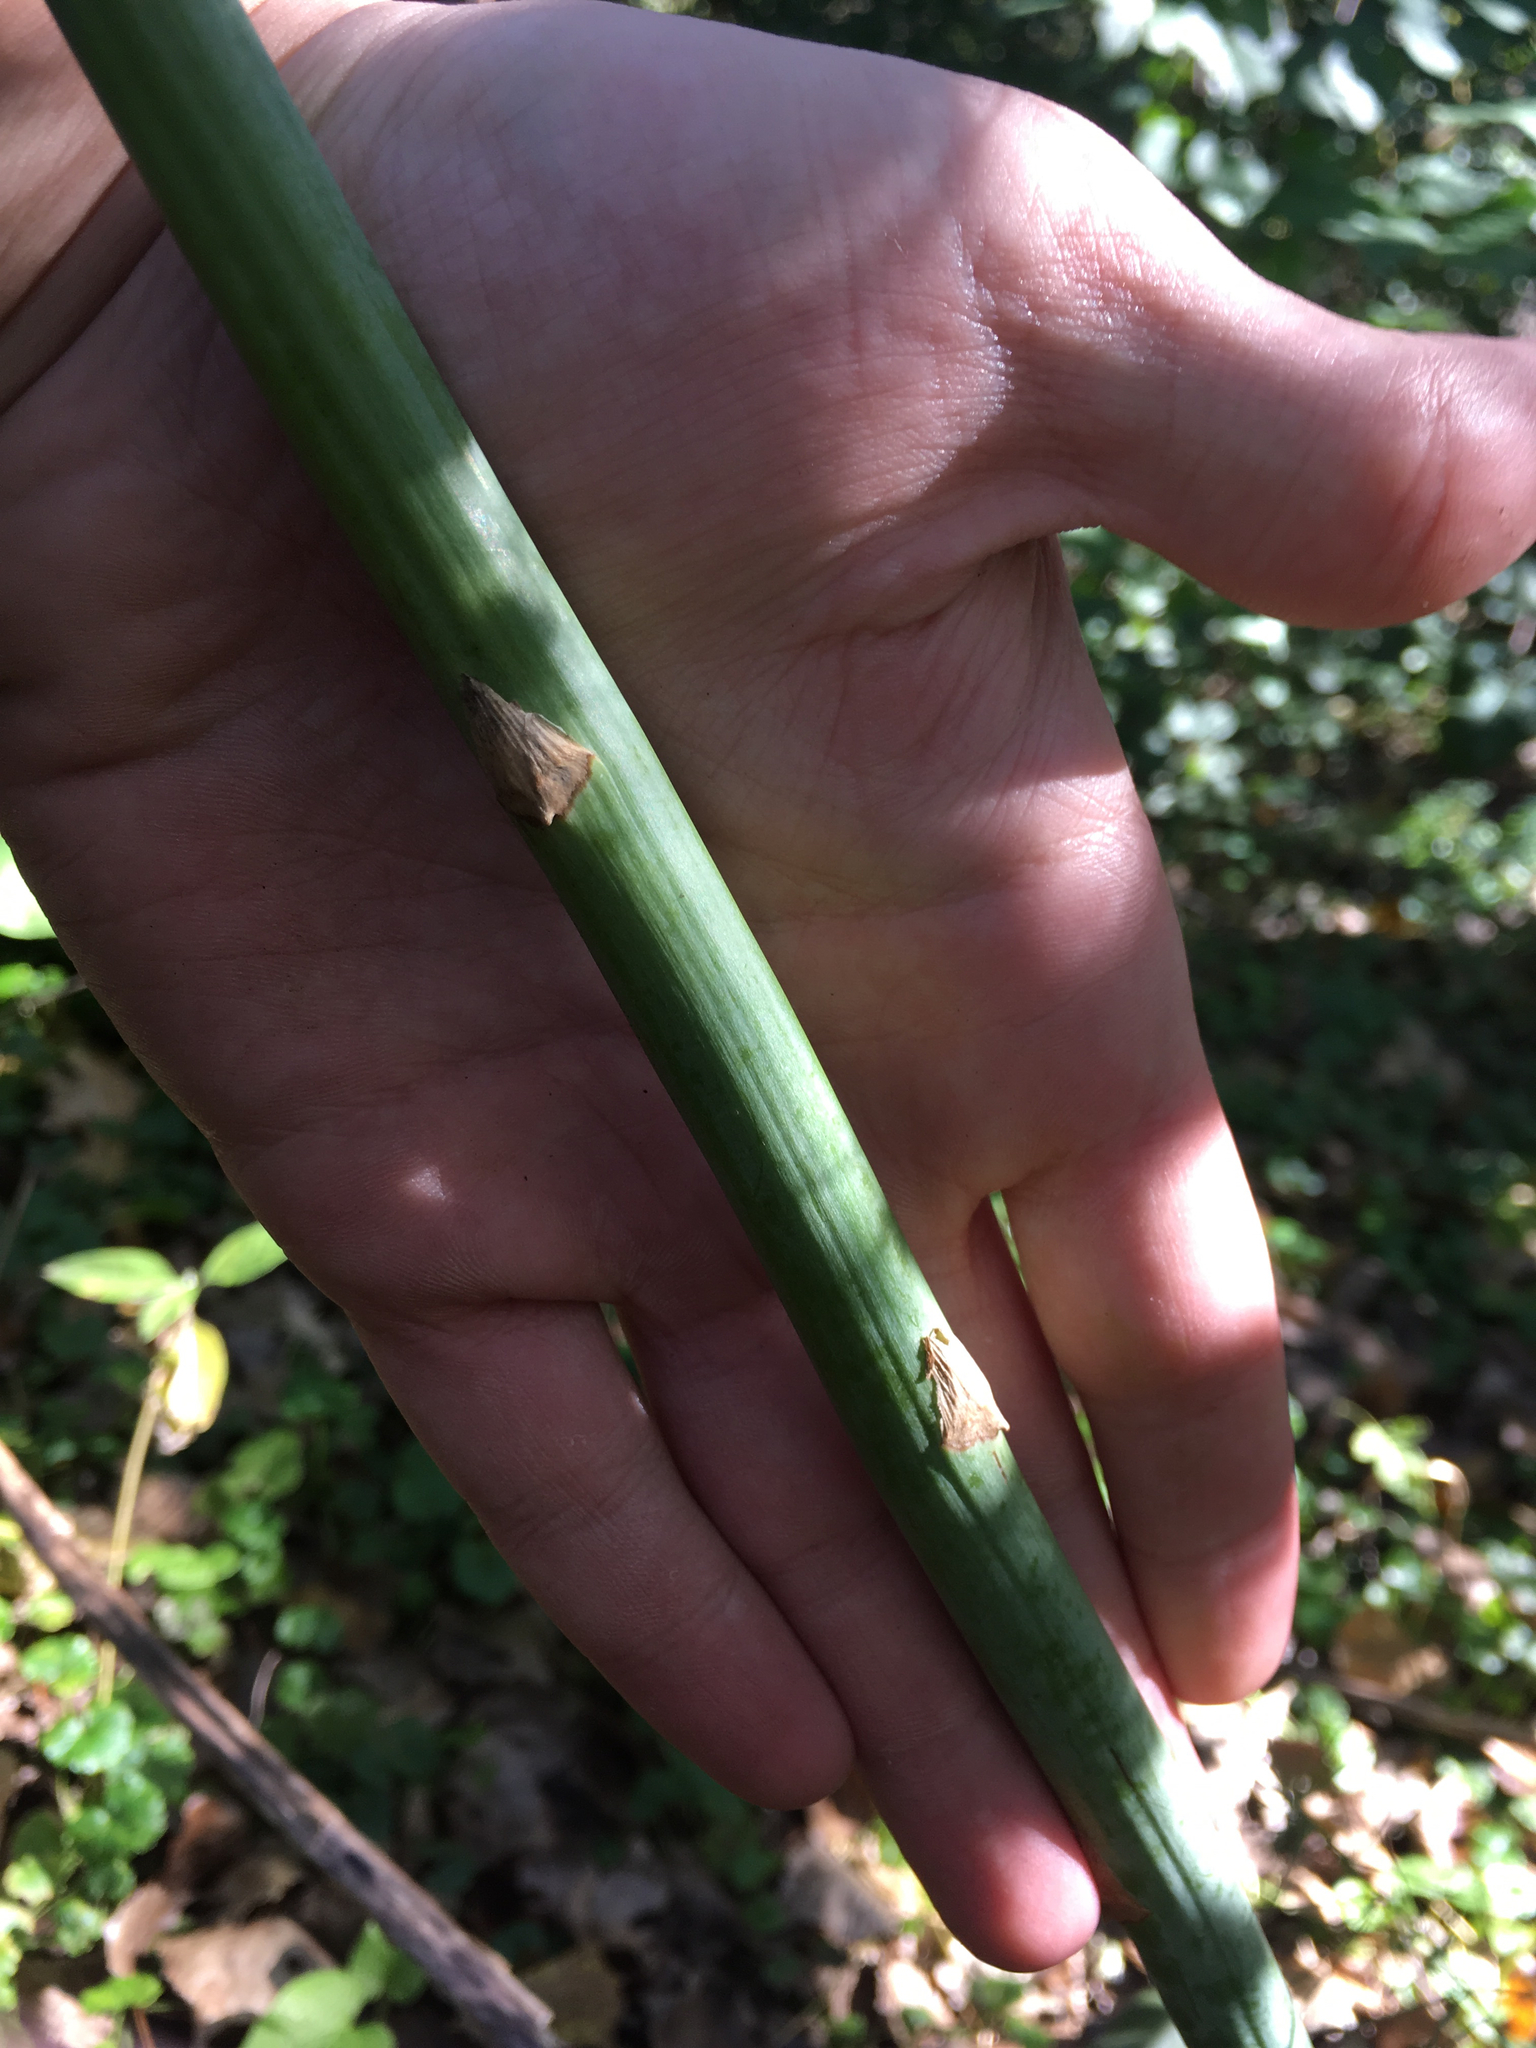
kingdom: Plantae
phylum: Tracheophyta
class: Liliopsida
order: Asparagales
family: Asparagaceae
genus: Asparagus
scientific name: Asparagus officinalis
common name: Garden asparagus
